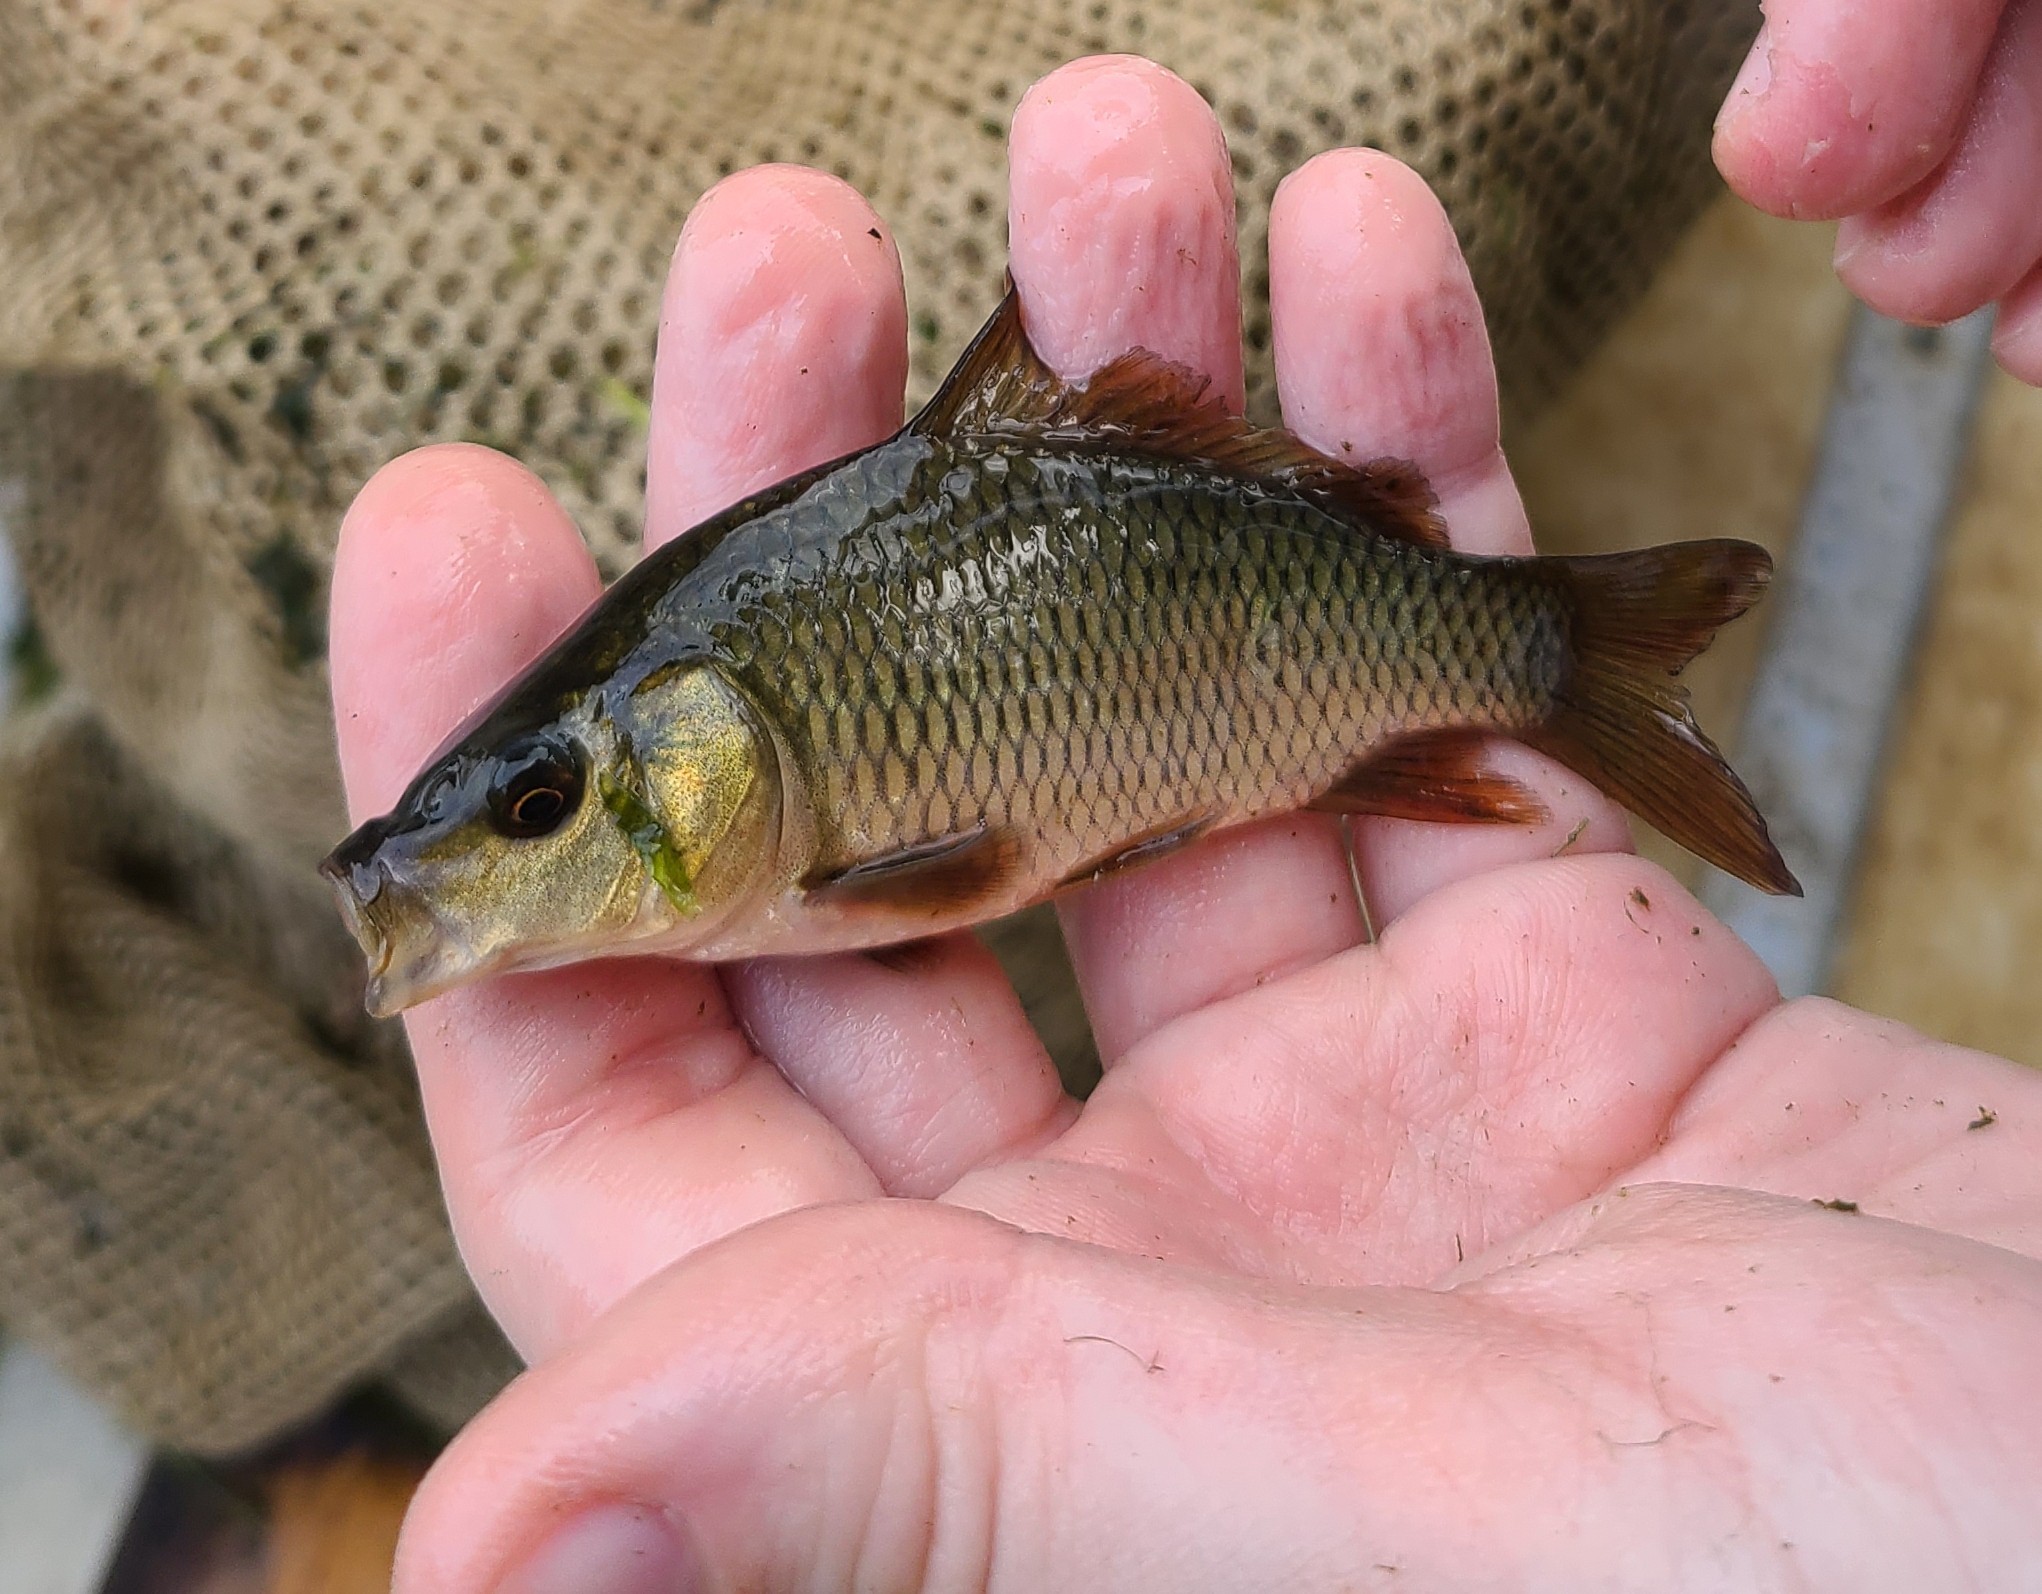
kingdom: Animalia
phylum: Chordata
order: Cypriniformes
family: Cyprinidae
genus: Cyprinus
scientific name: Cyprinus carpio
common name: Common carp
